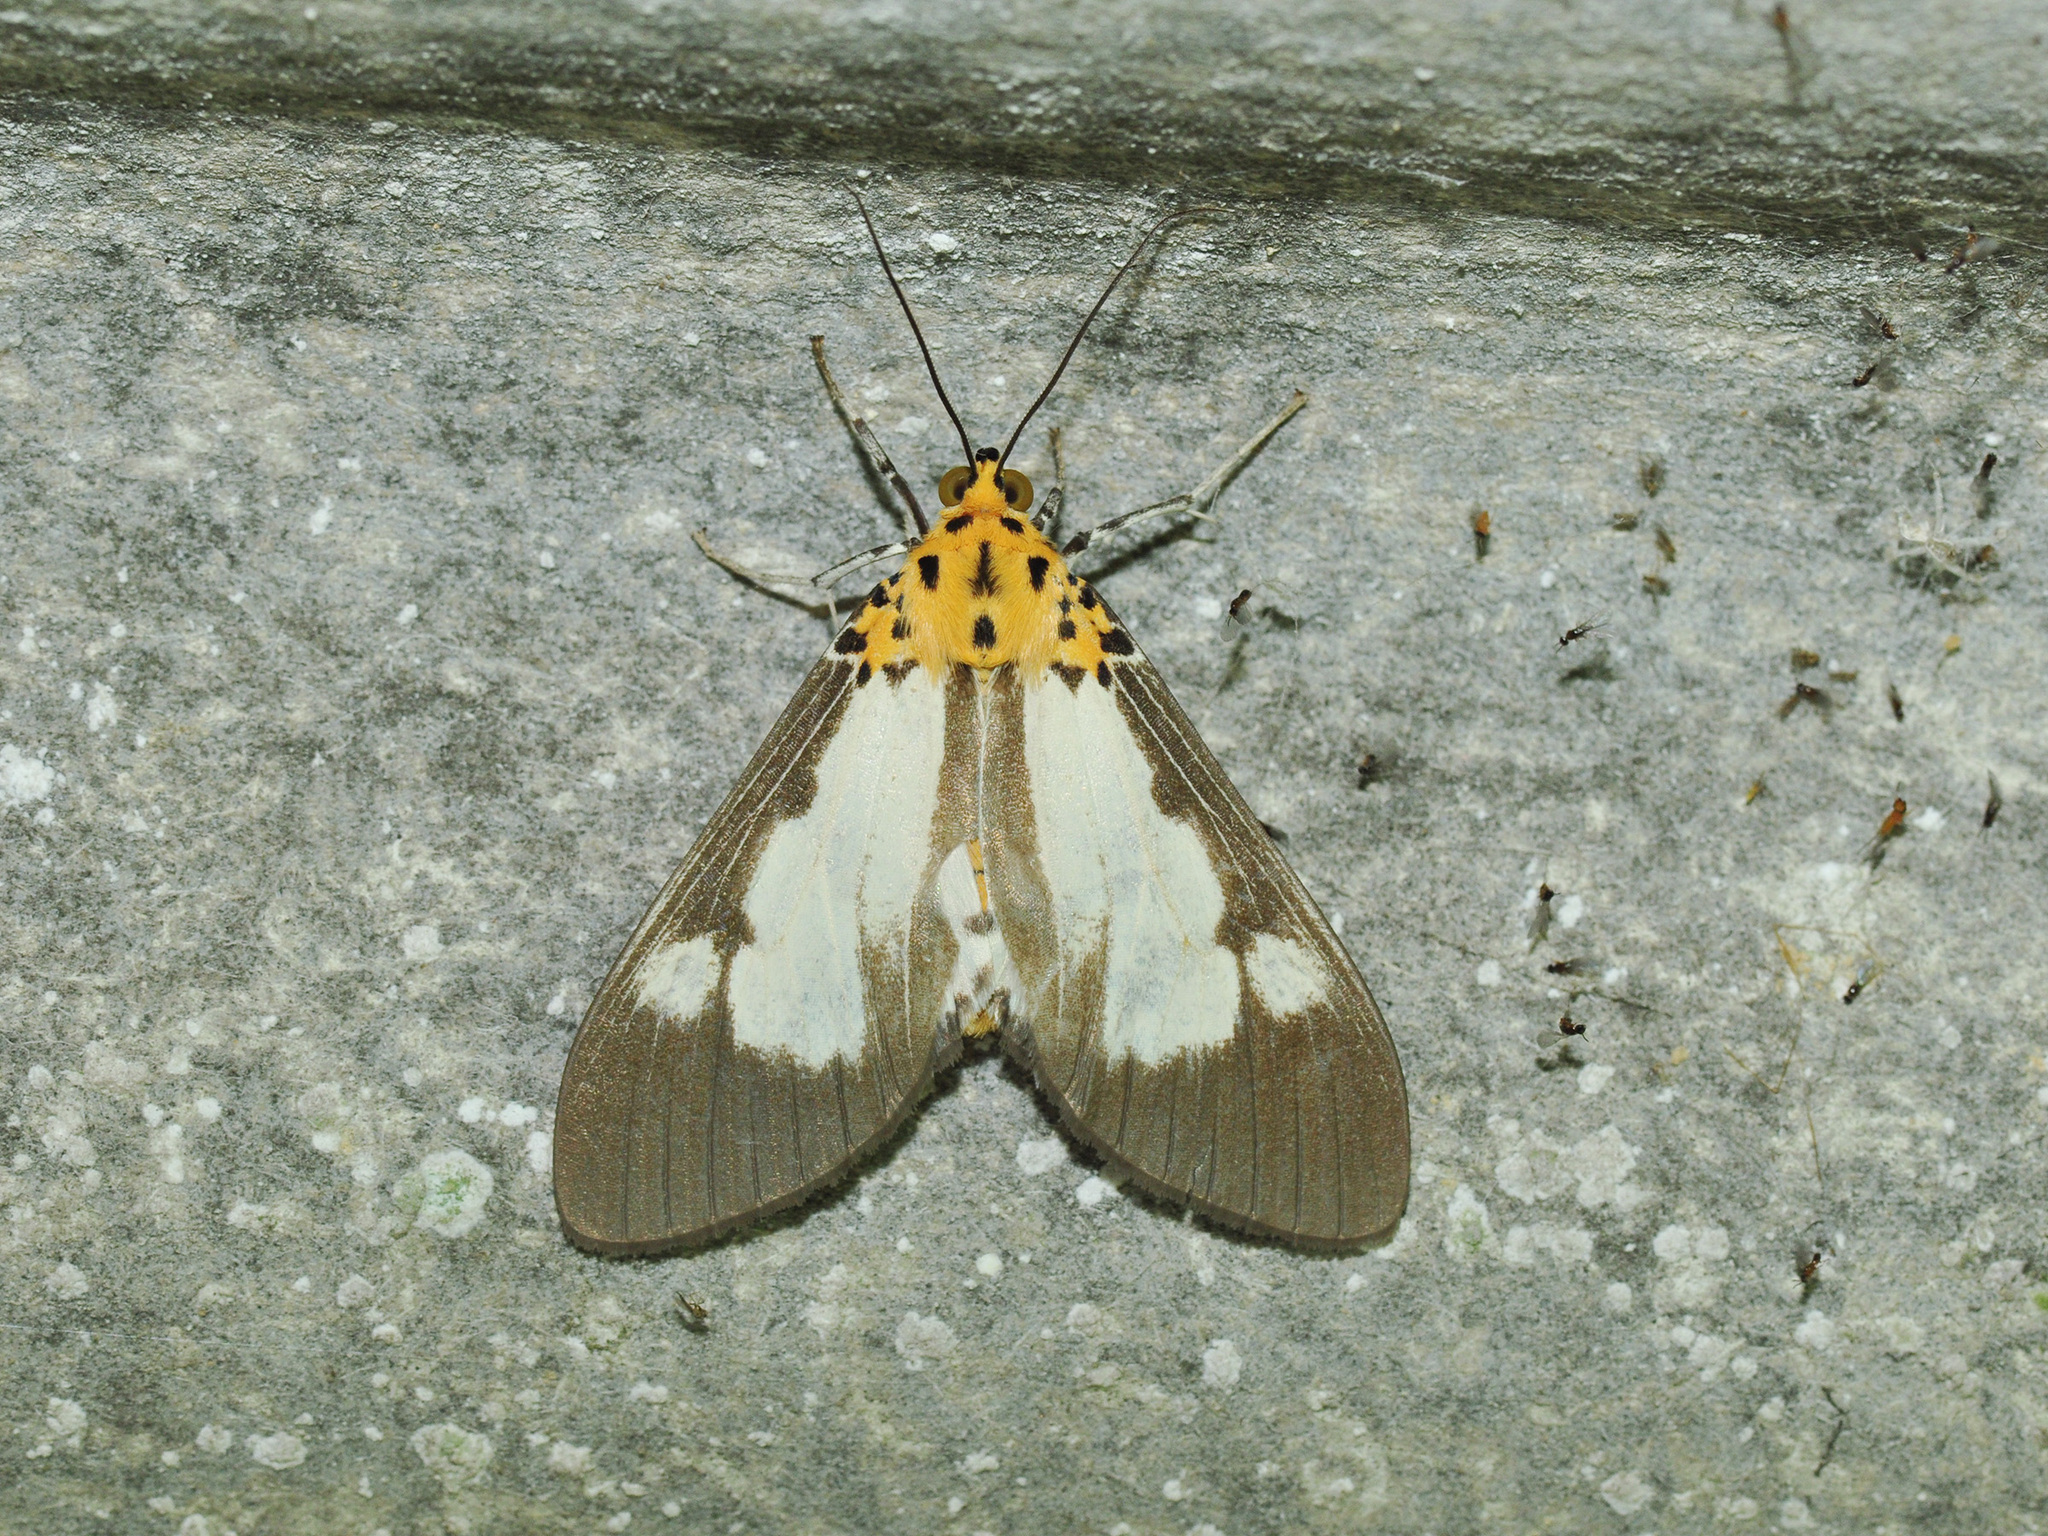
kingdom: Animalia
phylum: Arthropoda
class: Insecta
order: Lepidoptera
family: Erebidae
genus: Asota
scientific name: Asota plana
